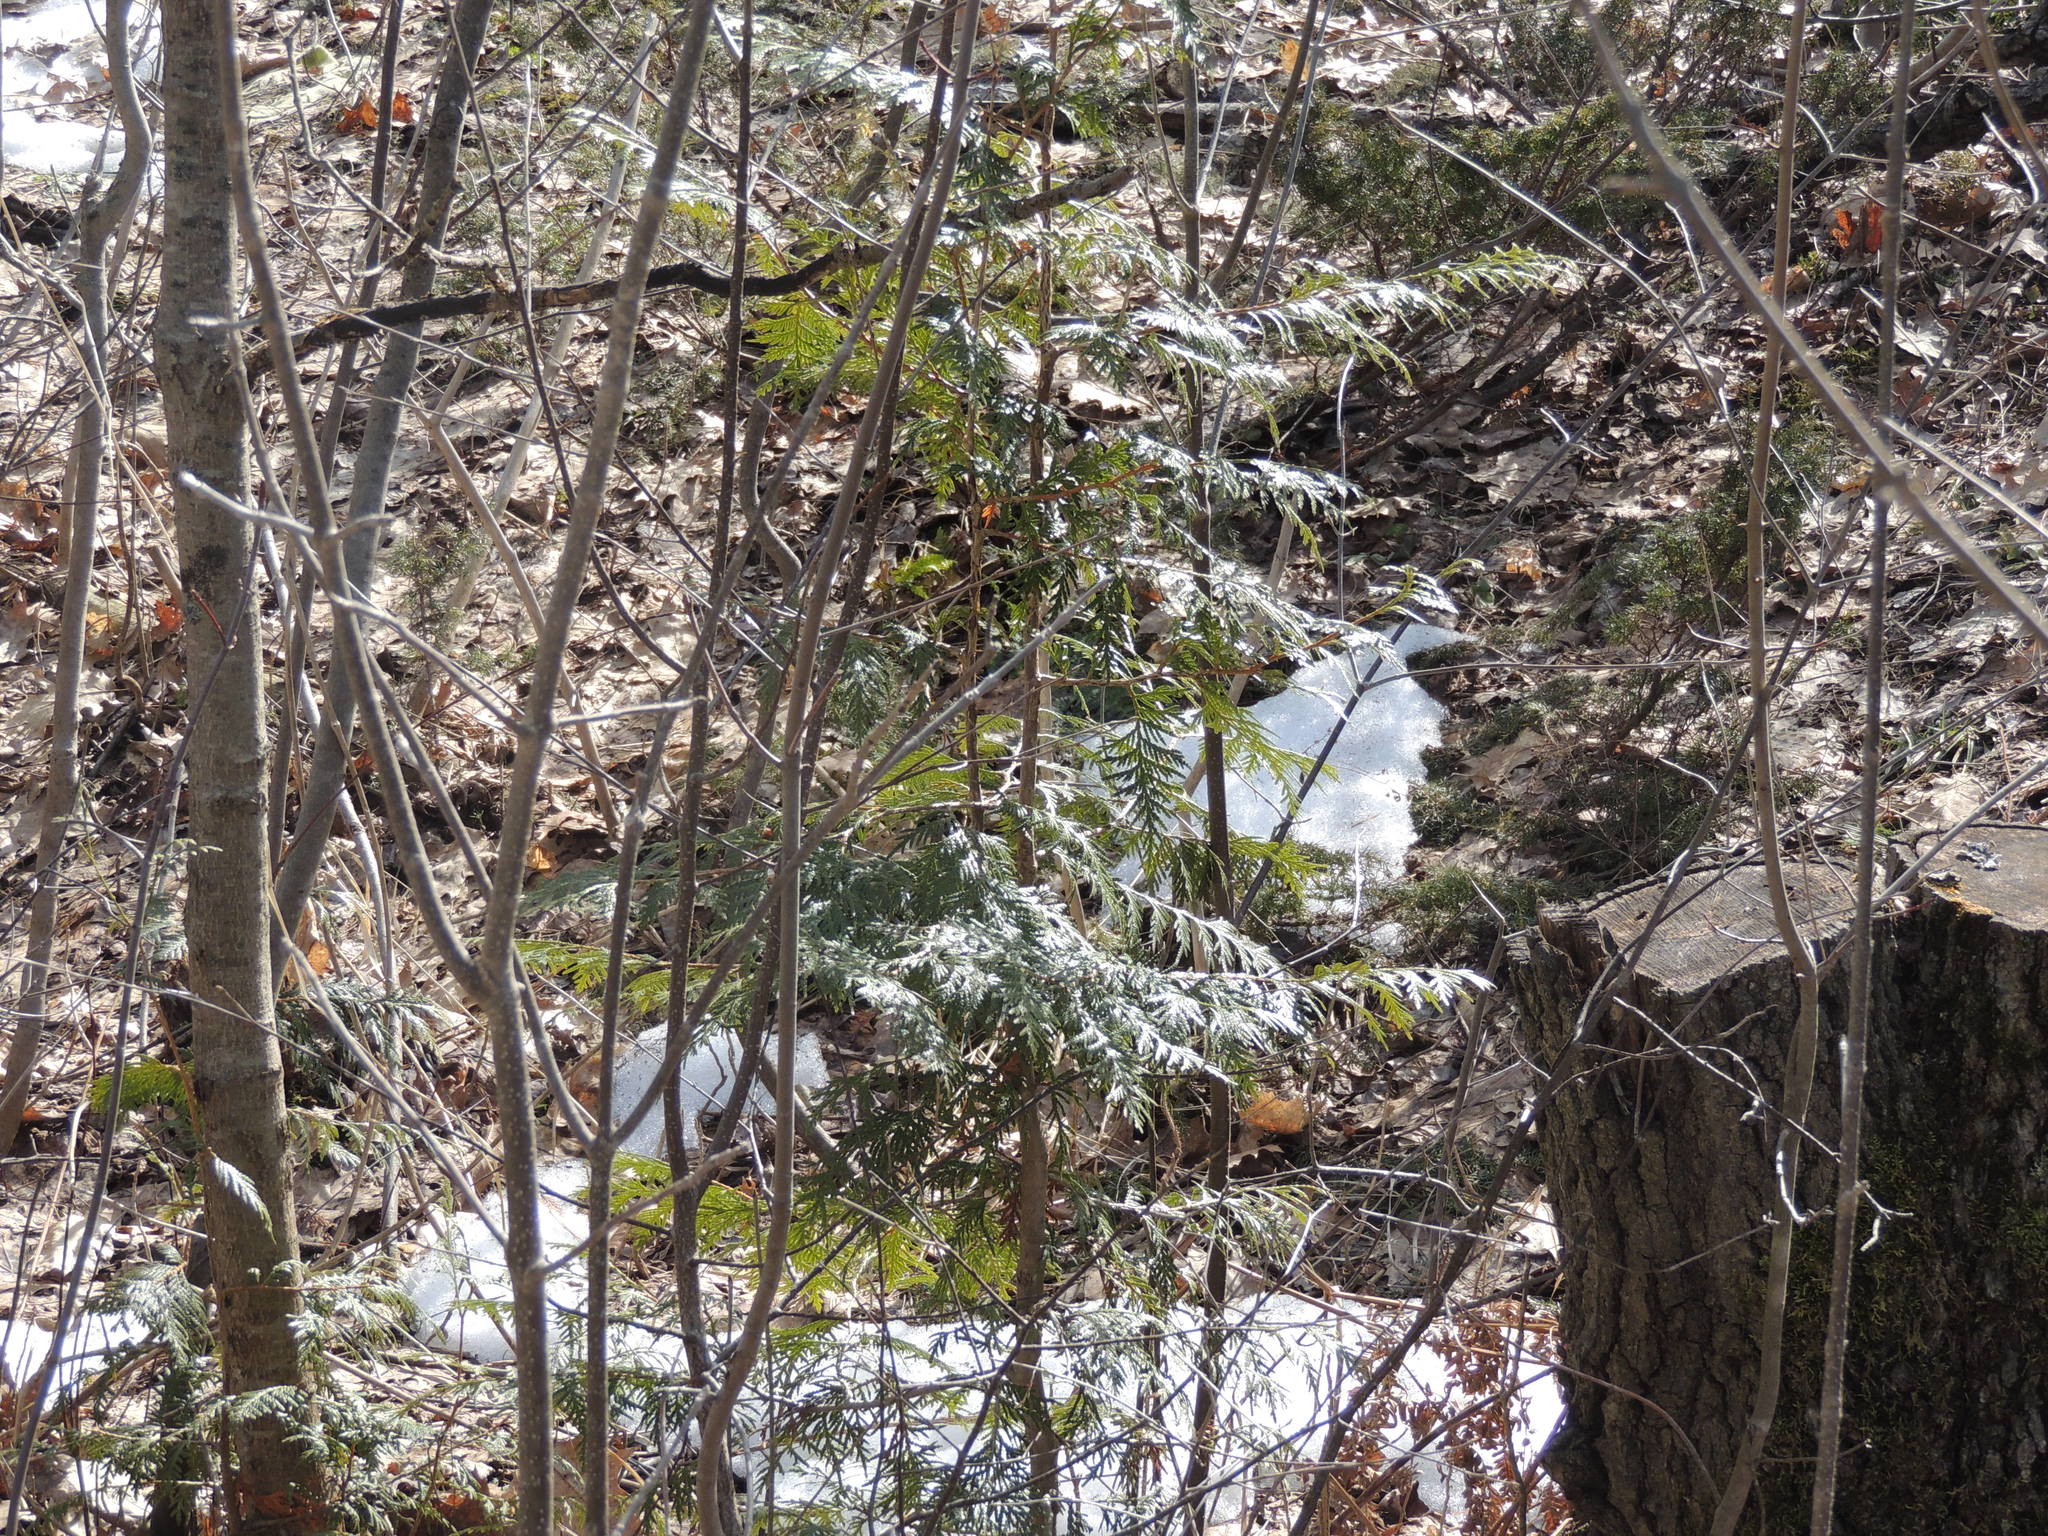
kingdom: Plantae
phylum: Tracheophyta
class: Pinopsida
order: Pinales
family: Cupressaceae
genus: Thuja
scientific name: Thuja occidentalis
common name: Northern white-cedar
